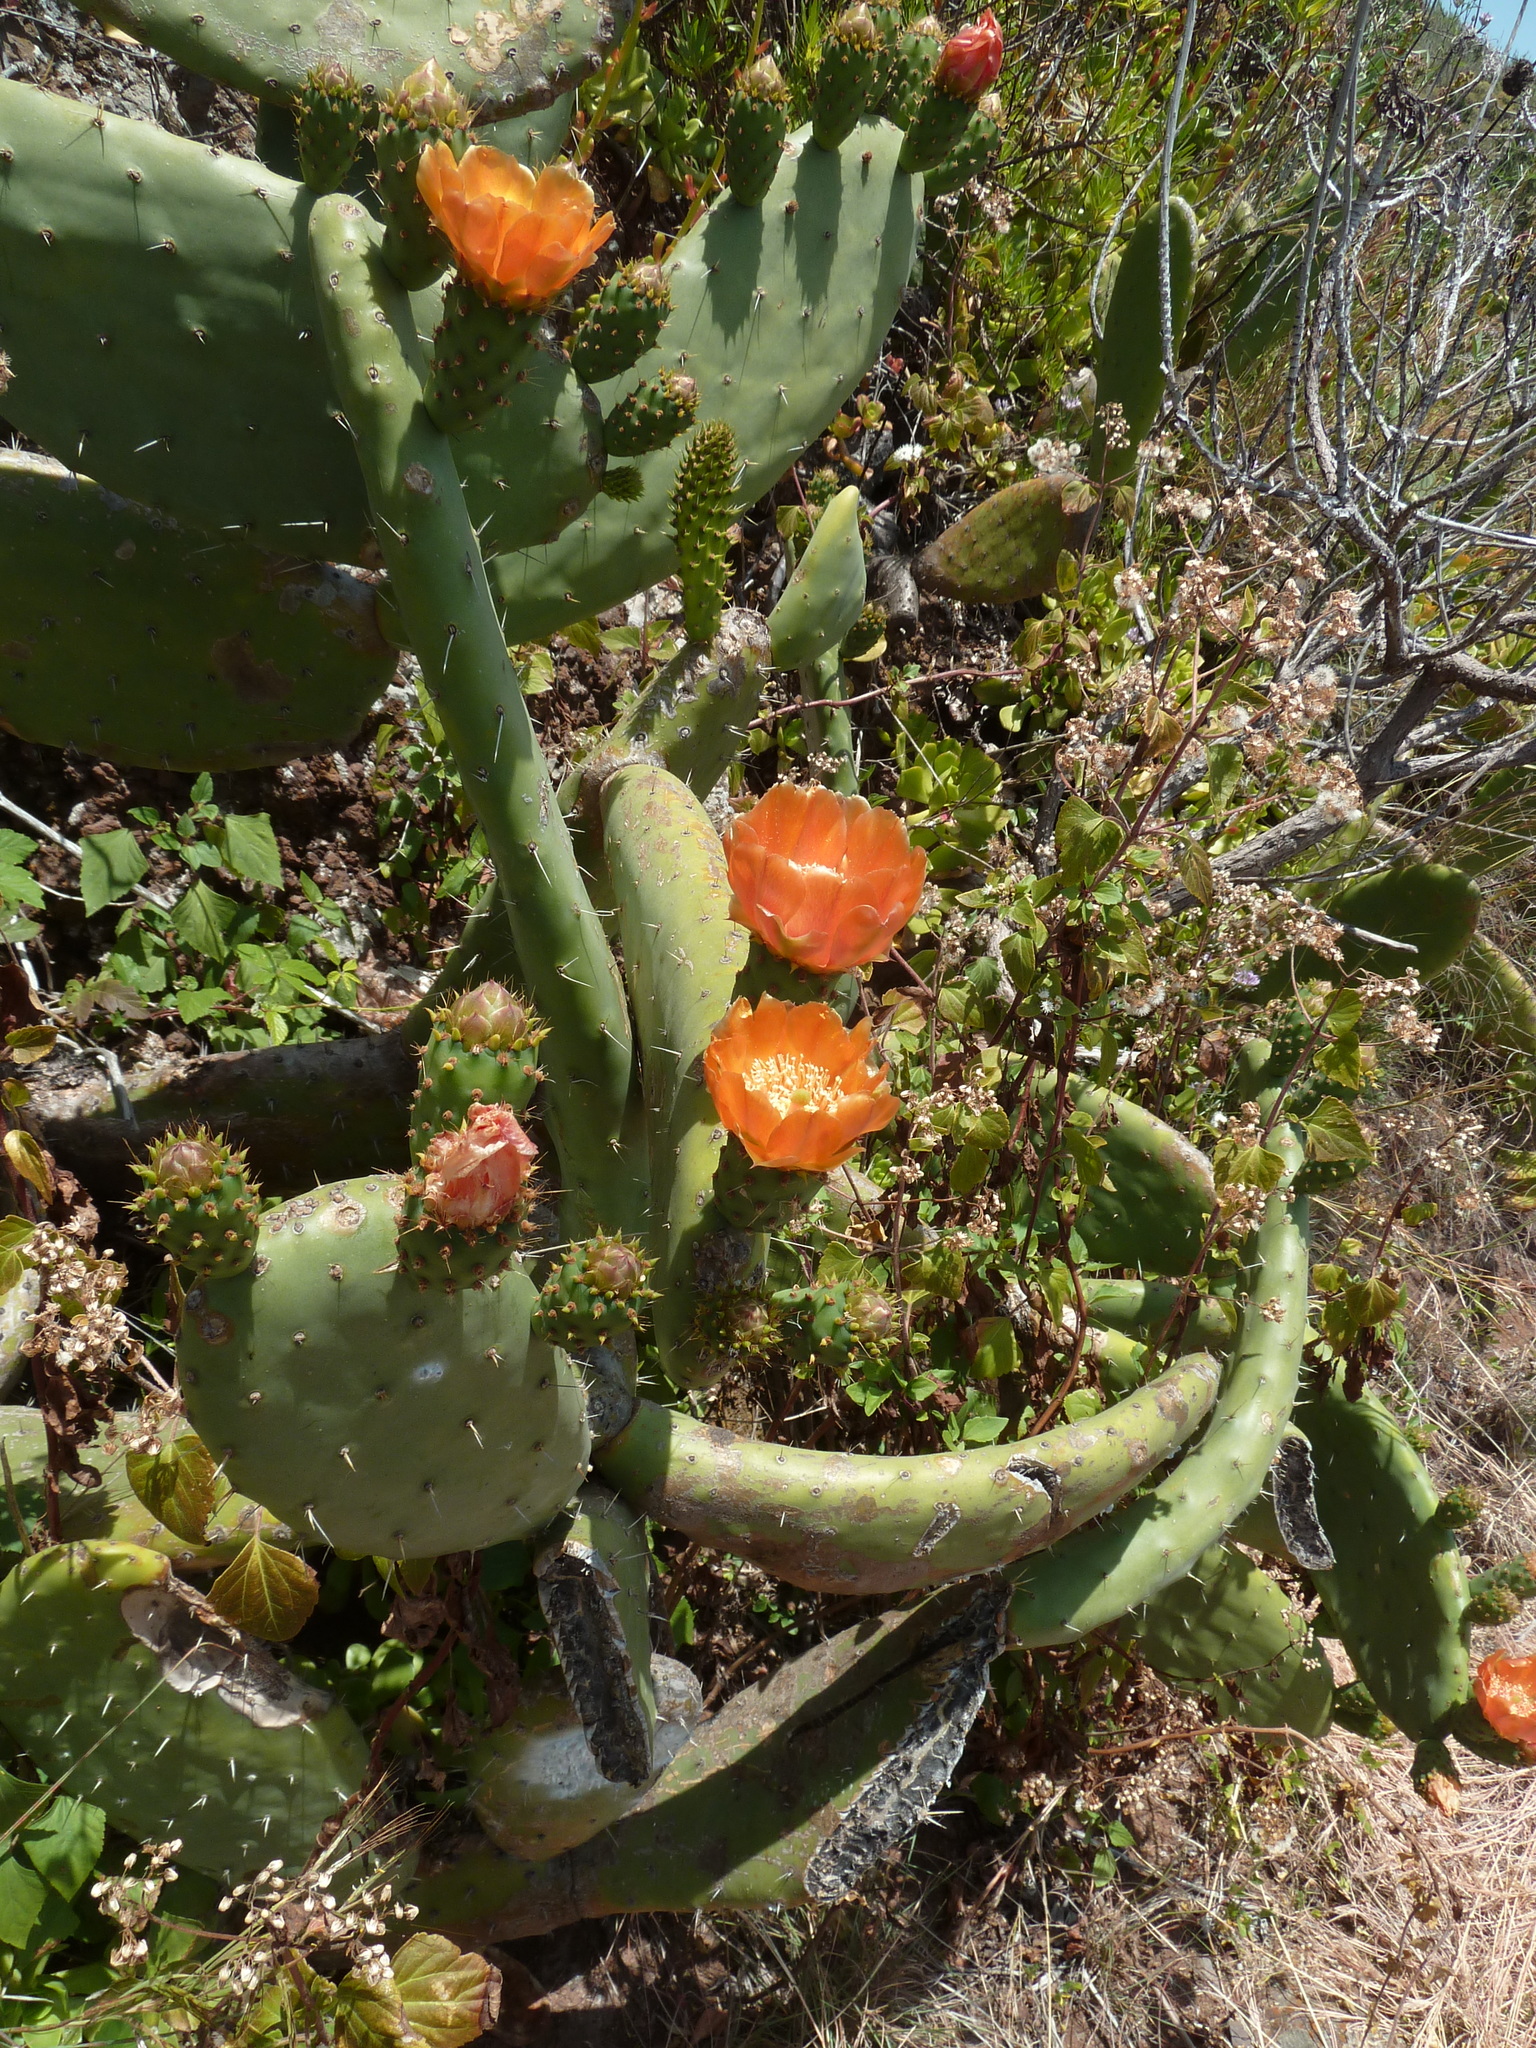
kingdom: Plantae
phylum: Tracheophyta
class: Magnoliopsida
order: Caryophyllales
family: Cactaceae
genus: Opuntia
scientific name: Opuntia ficus-indica
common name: Barbary fig
